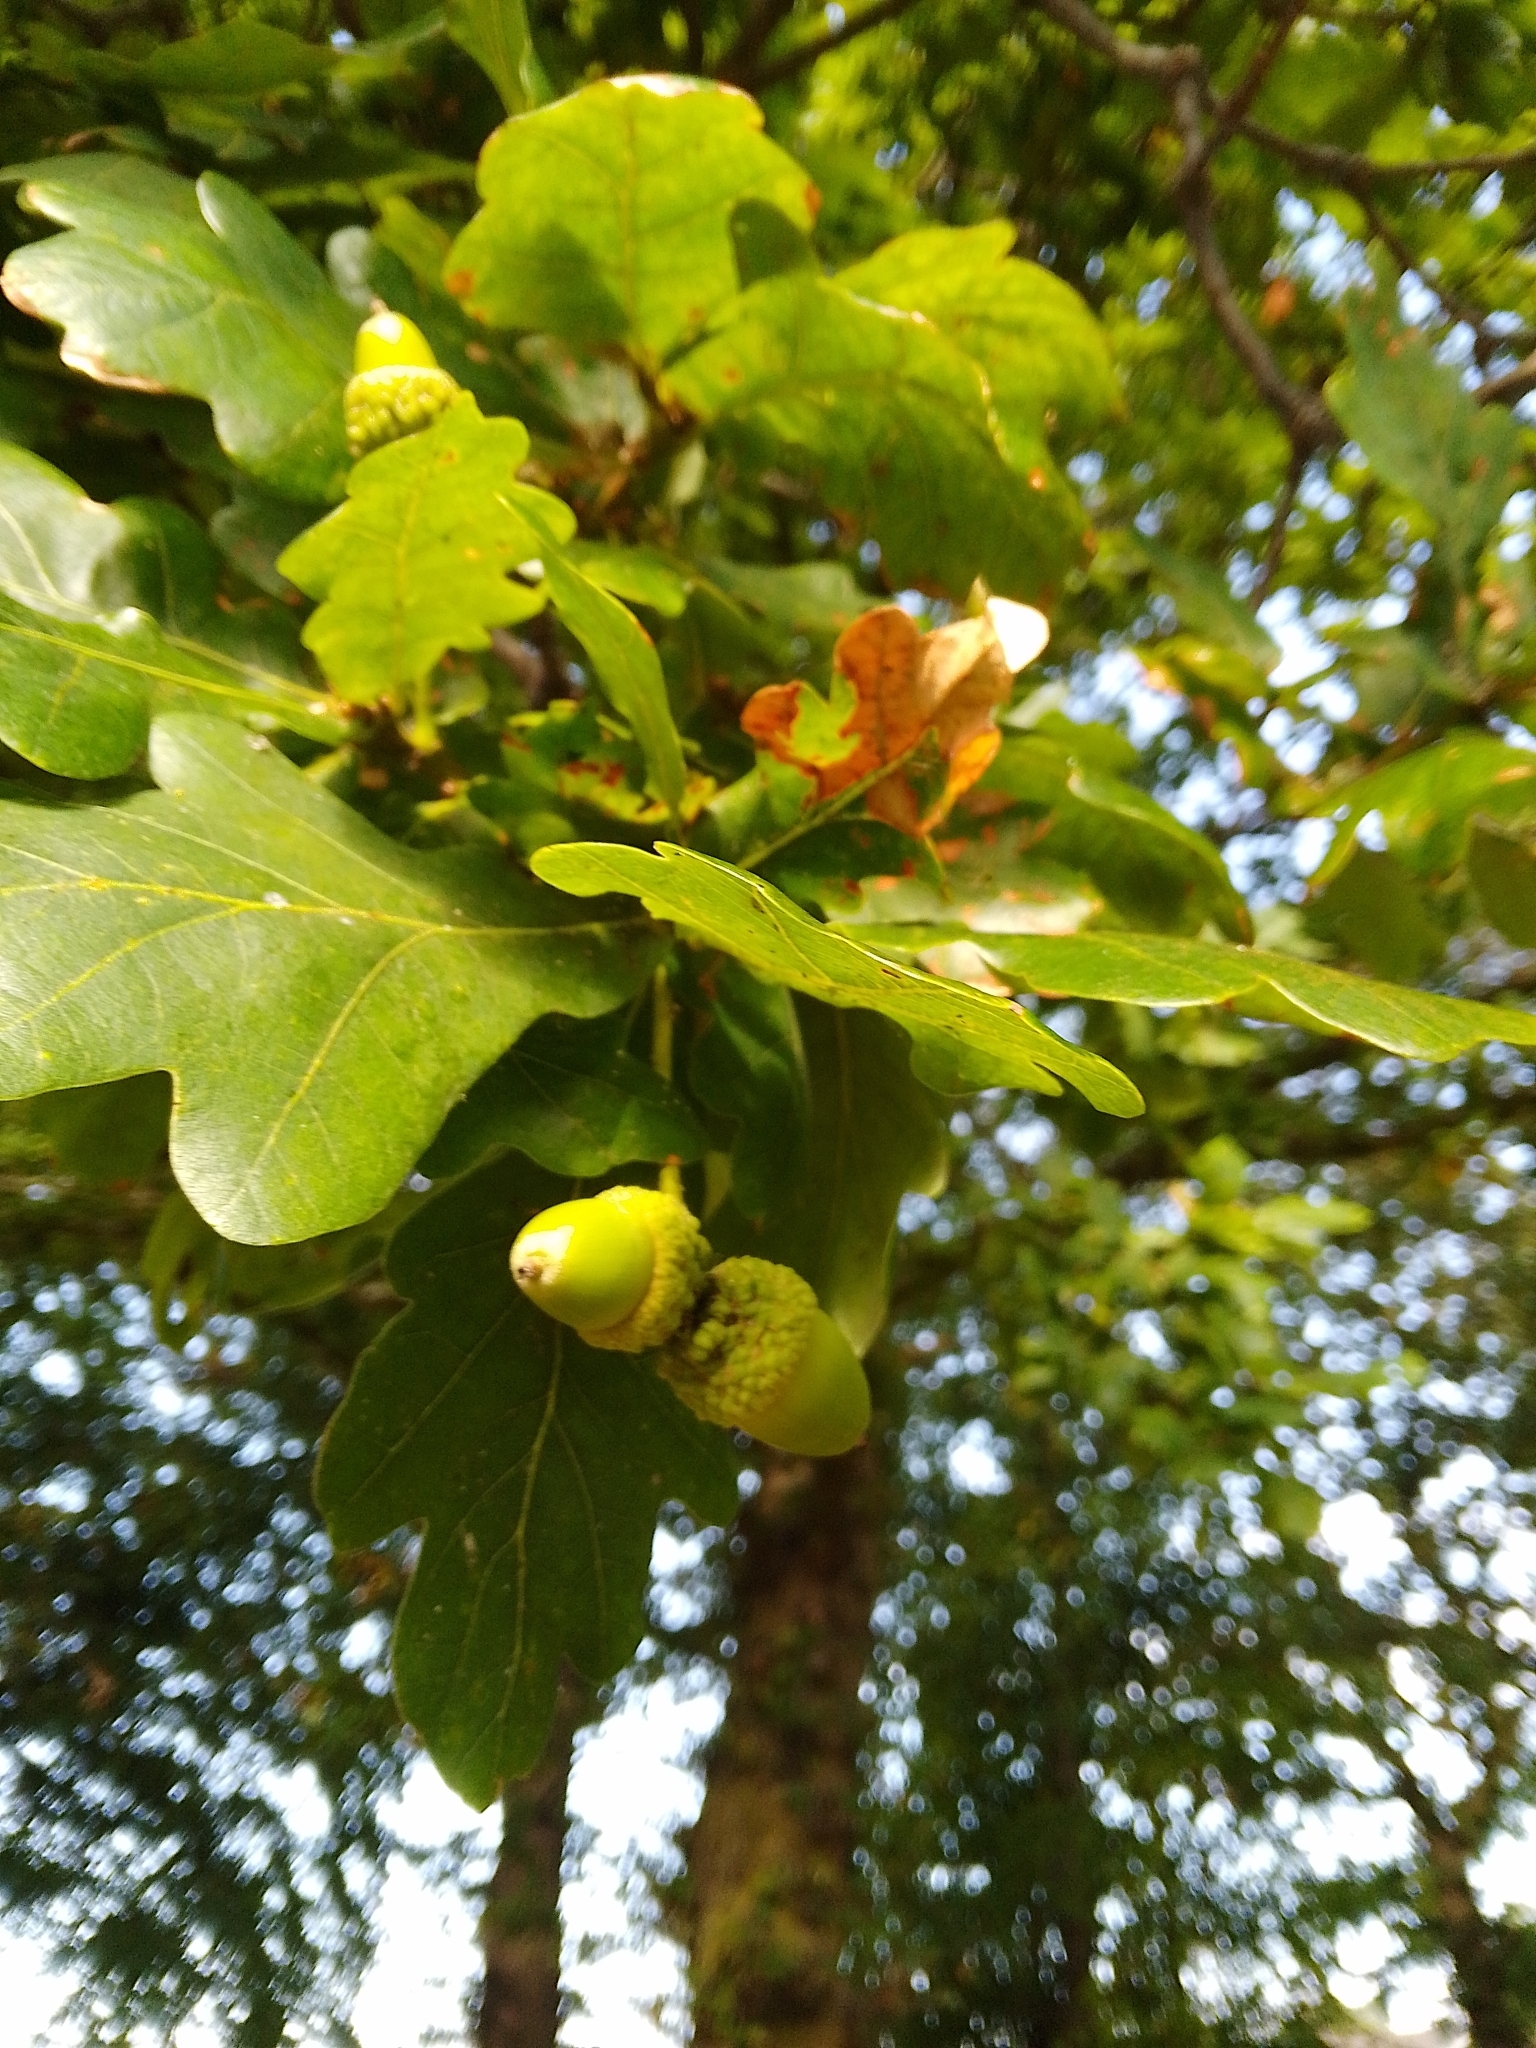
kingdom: Plantae
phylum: Tracheophyta
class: Magnoliopsida
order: Fagales
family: Fagaceae
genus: Quercus
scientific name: Quercus robur
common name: Pedunculate oak
